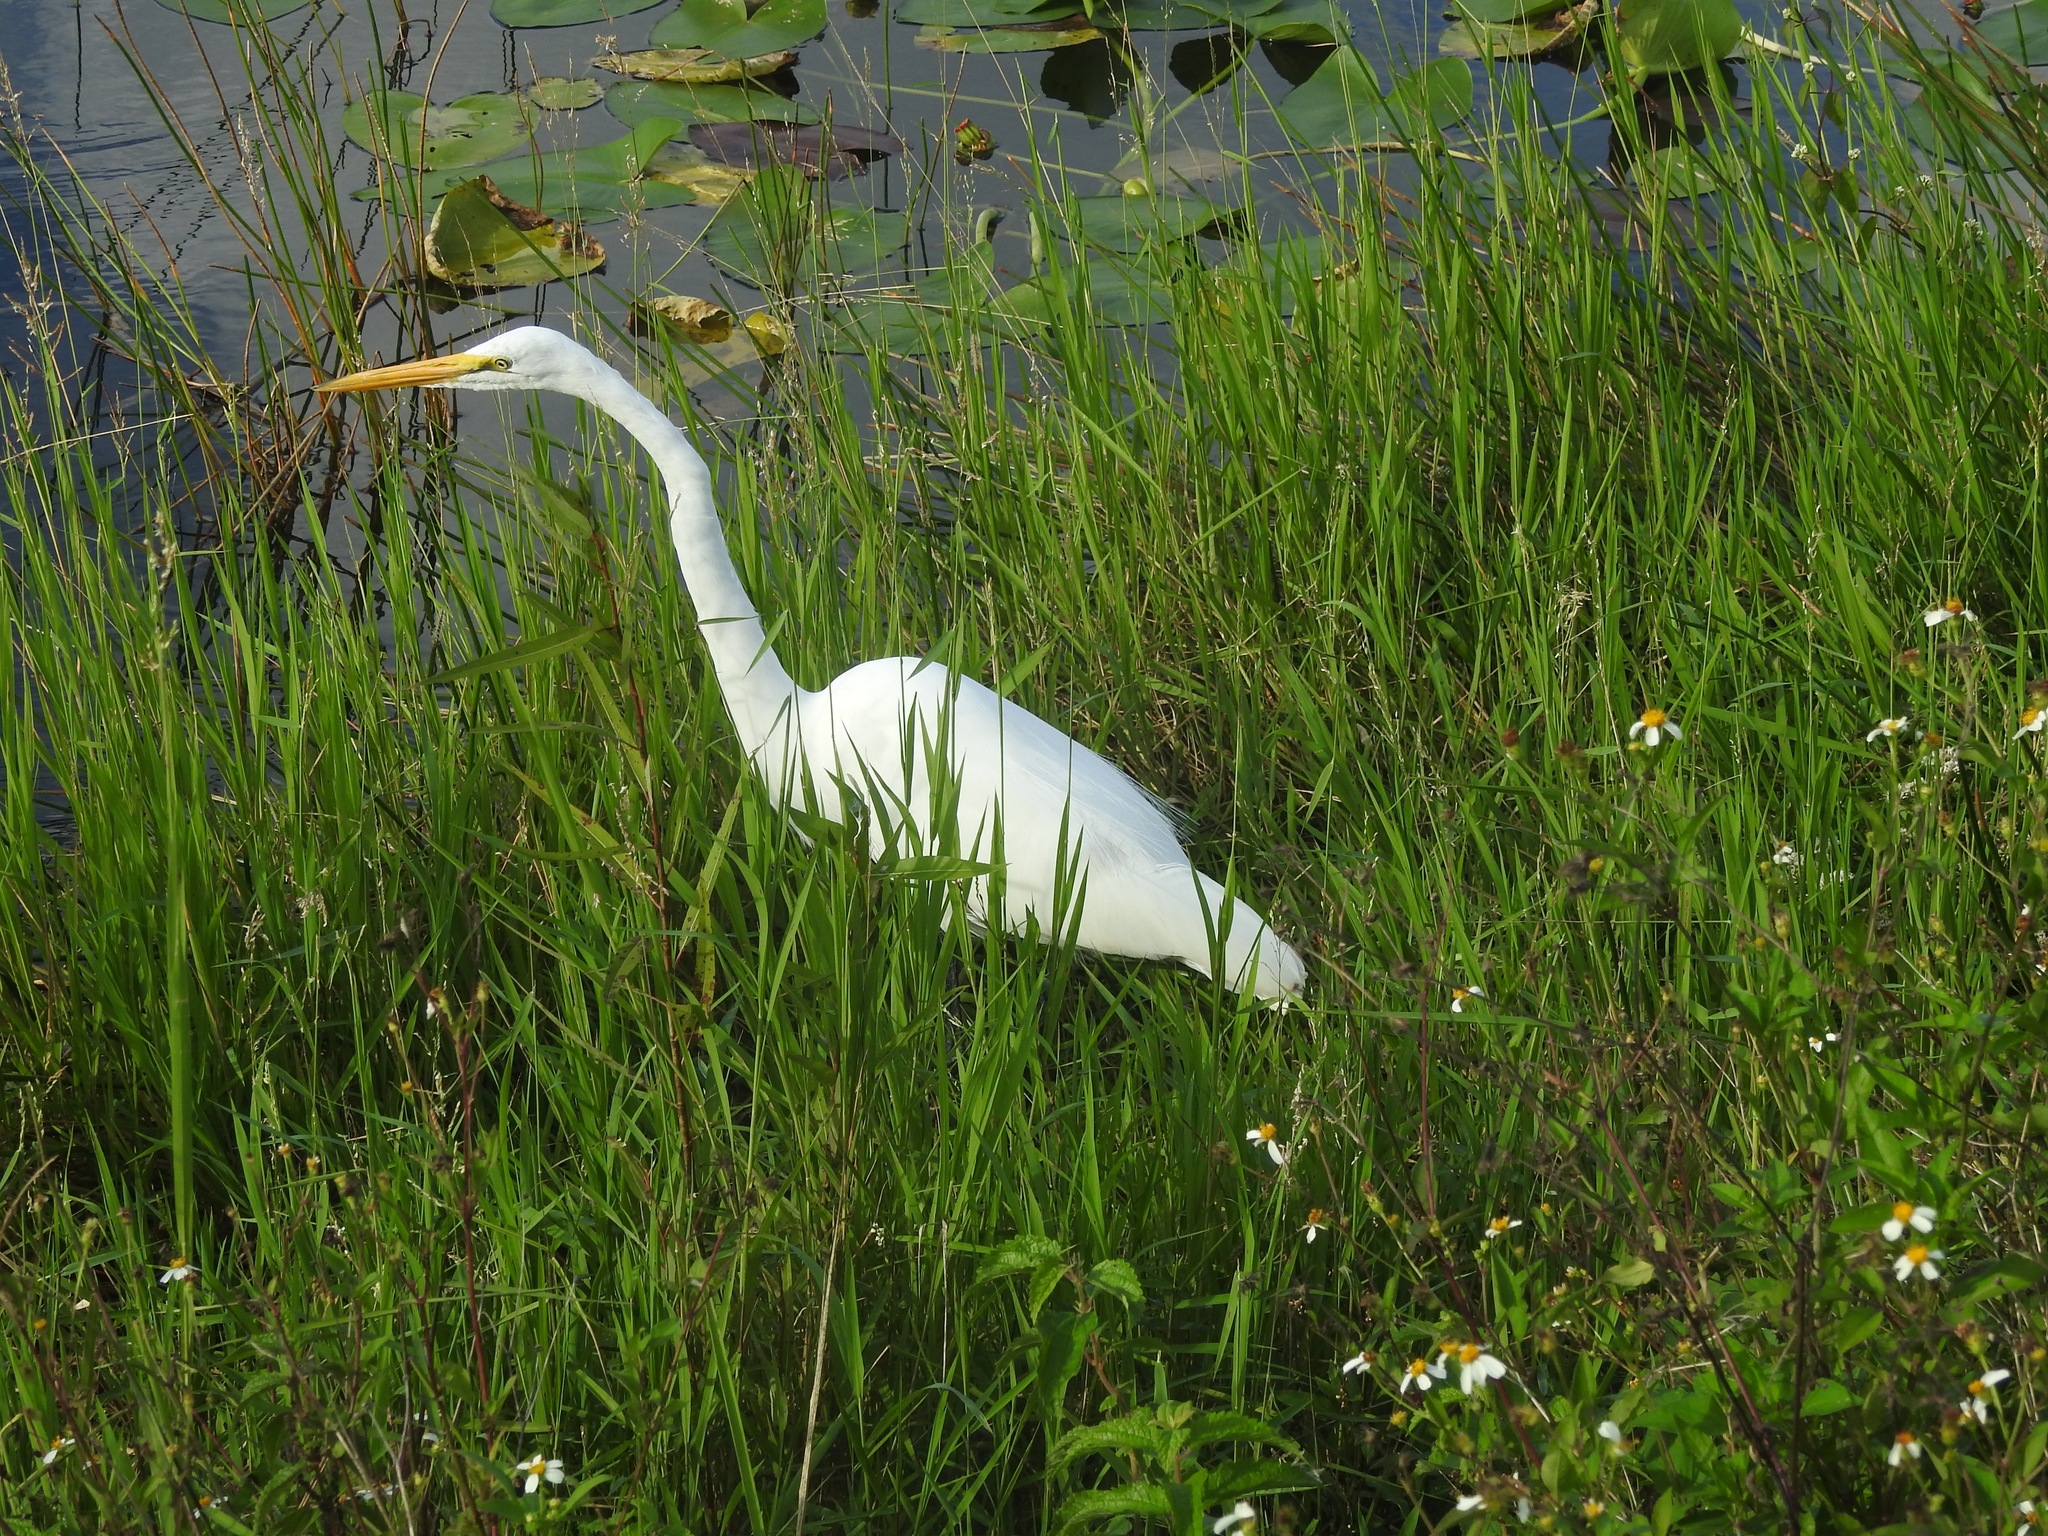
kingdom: Animalia
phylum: Chordata
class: Aves
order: Pelecaniformes
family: Ardeidae
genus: Ardea
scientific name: Ardea alba
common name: Great egret
